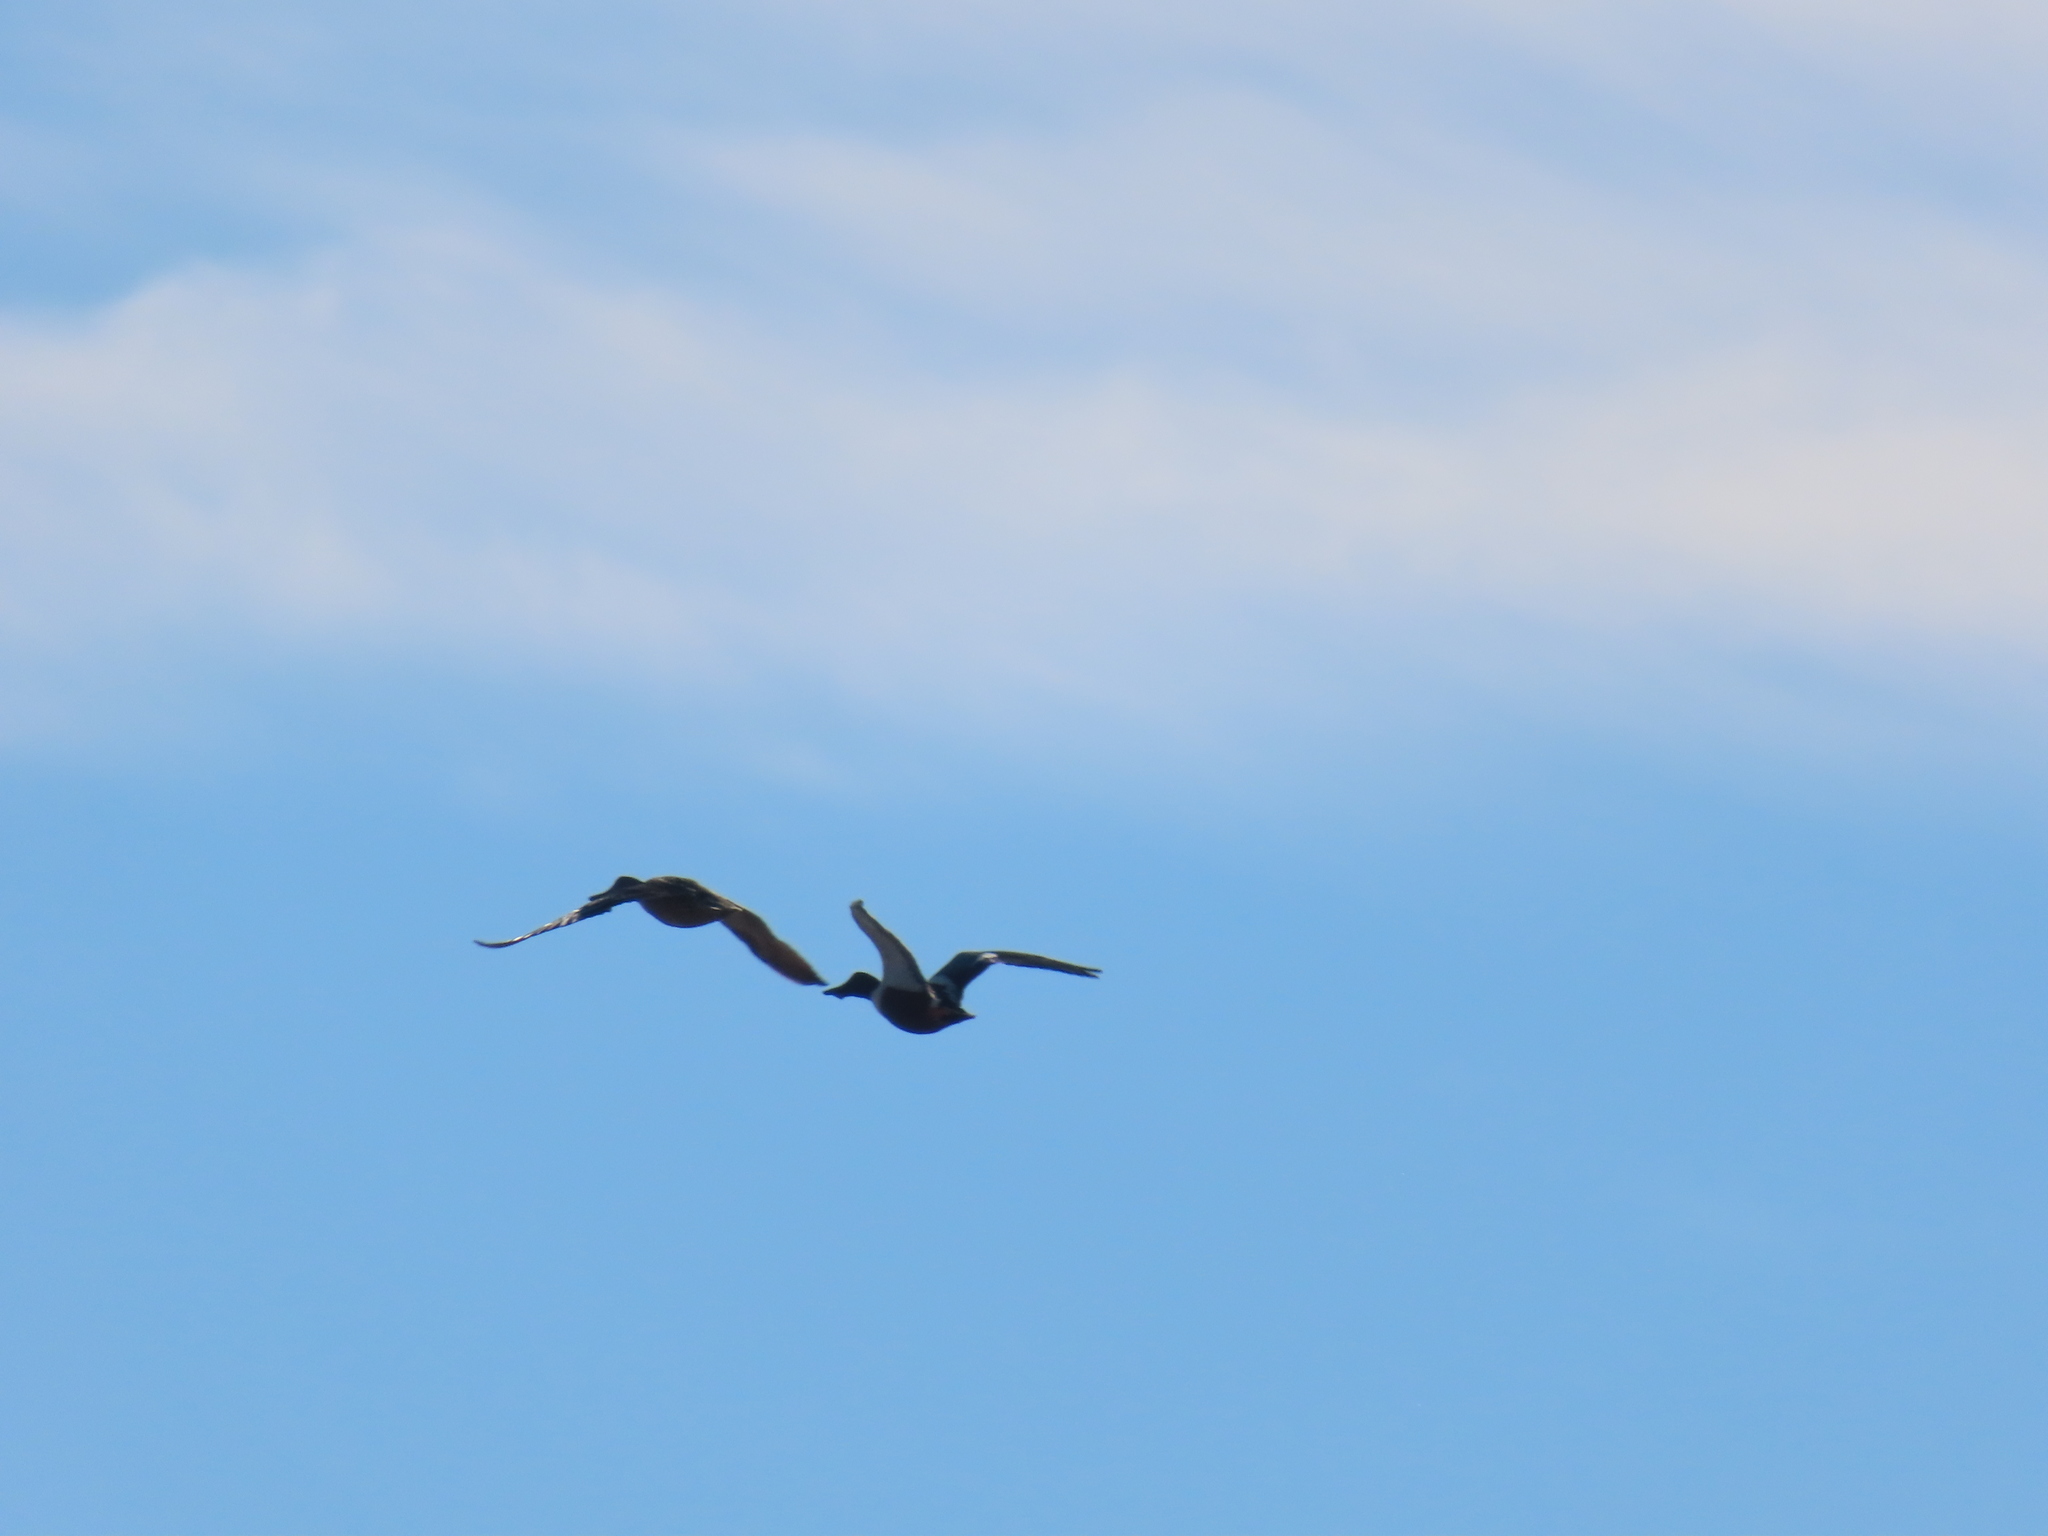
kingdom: Animalia
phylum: Chordata
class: Aves
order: Anseriformes
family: Anatidae
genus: Spatula
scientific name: Spatula clypeata
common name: Northern shoveler
